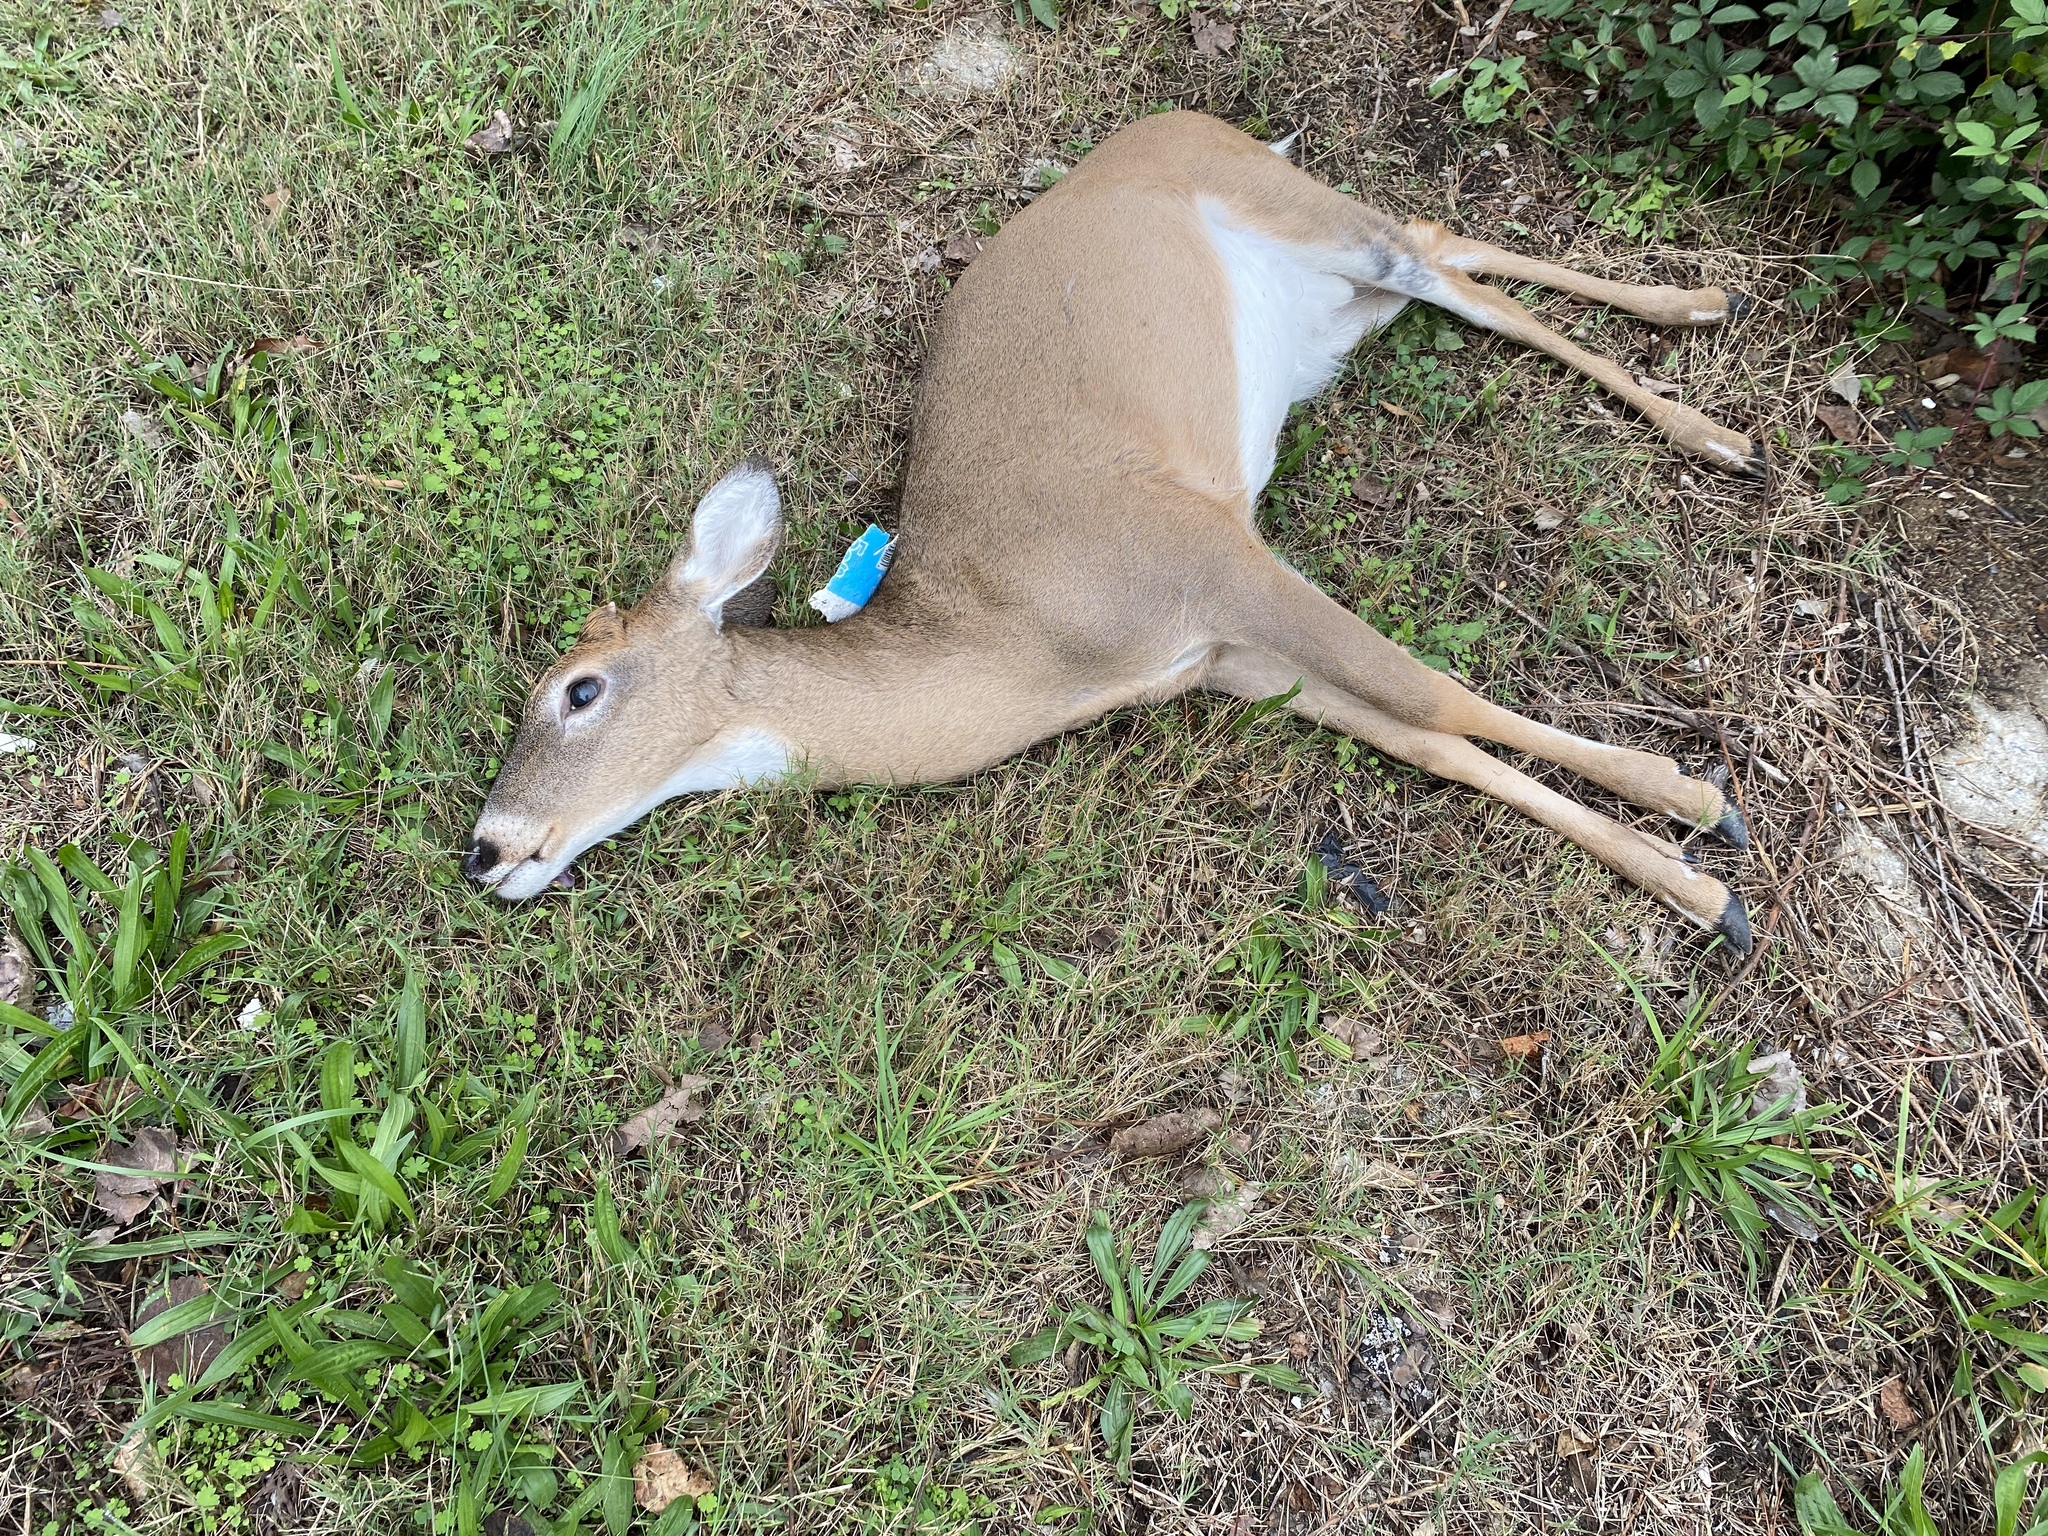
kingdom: Animalia
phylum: Chordata
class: Mammalia
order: Artiodactyla
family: Cervidae
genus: Odocoileus
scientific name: Odocoileus virginianus
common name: White-tailed deer
